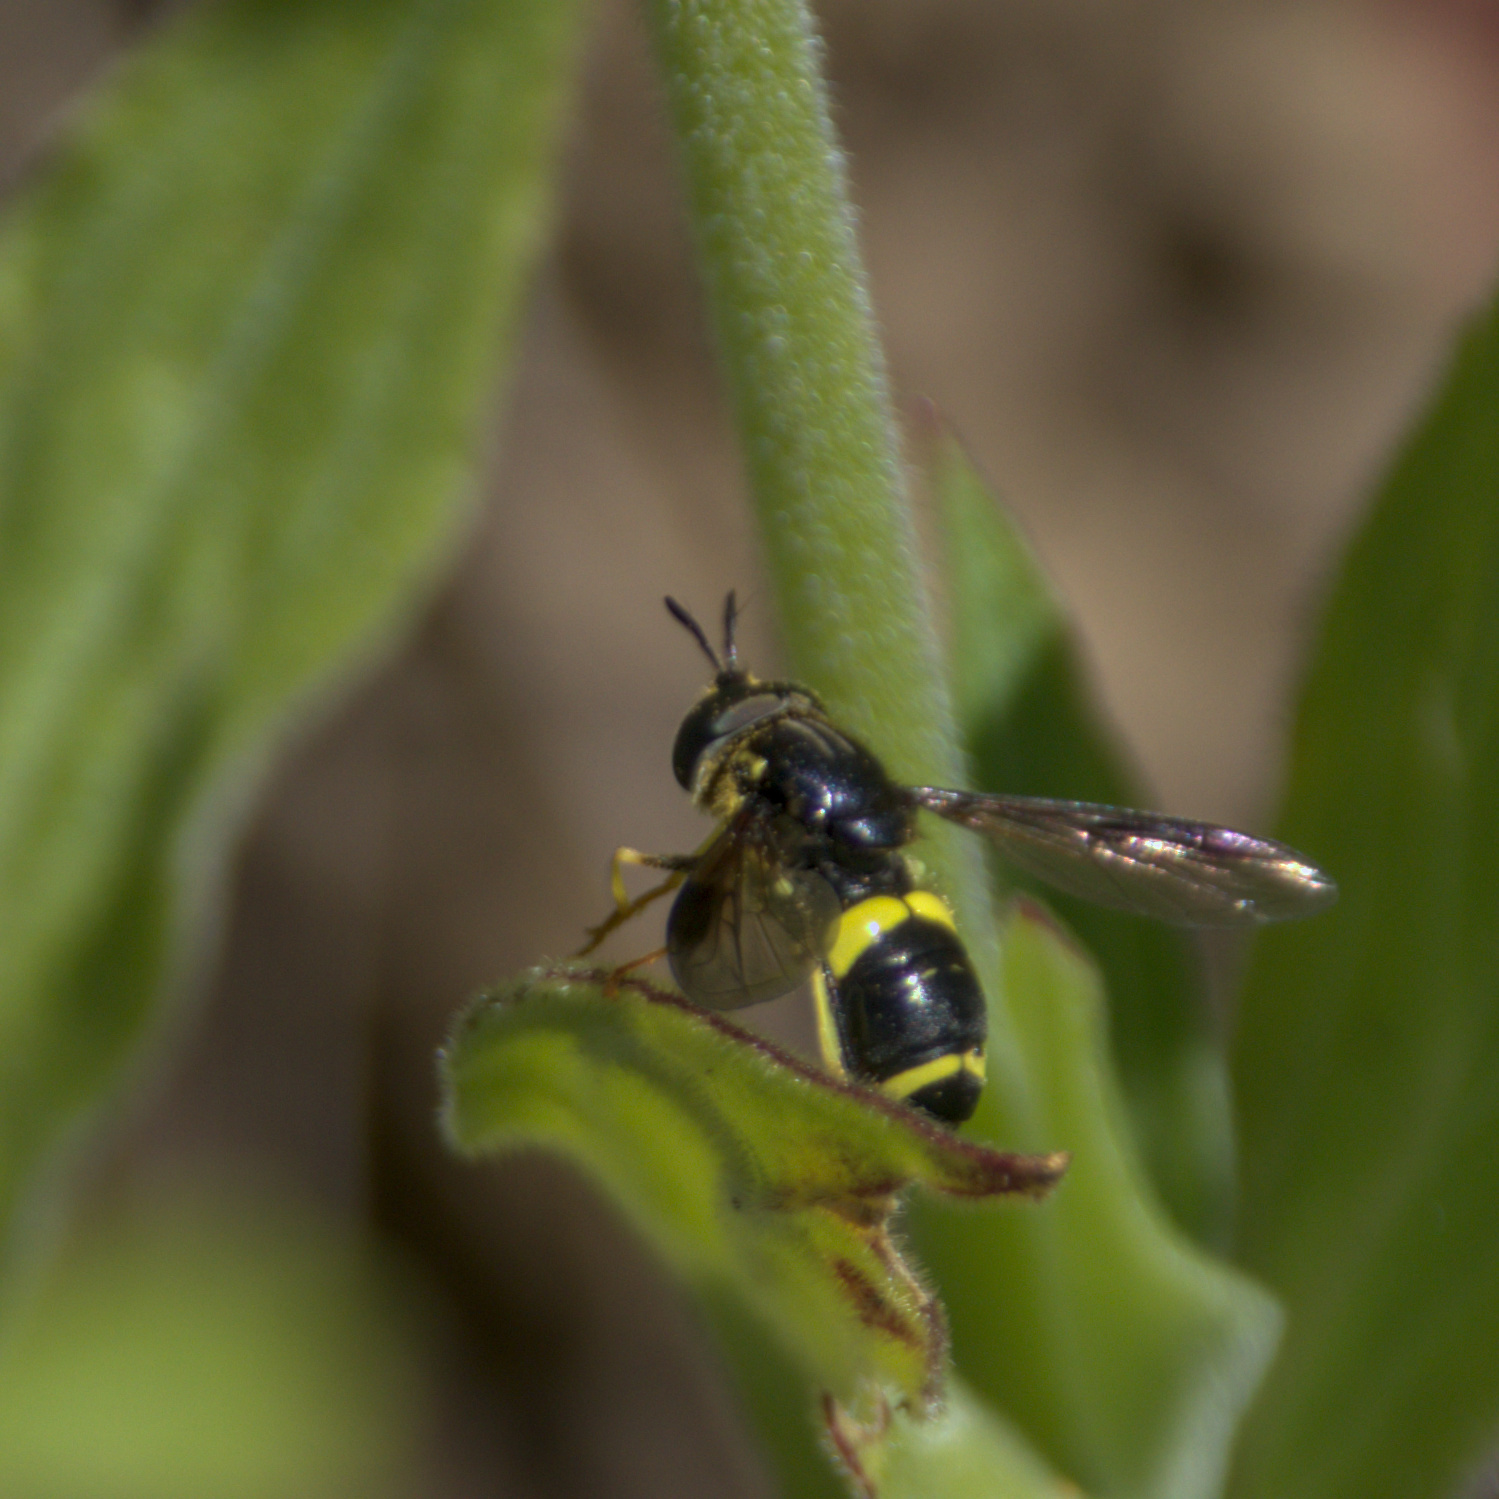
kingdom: Animalia
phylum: Arthropoda
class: Insecta
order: Diptera
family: Syrphidae
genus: Chrysotoxum
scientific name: Chrysotoxum bicincta
